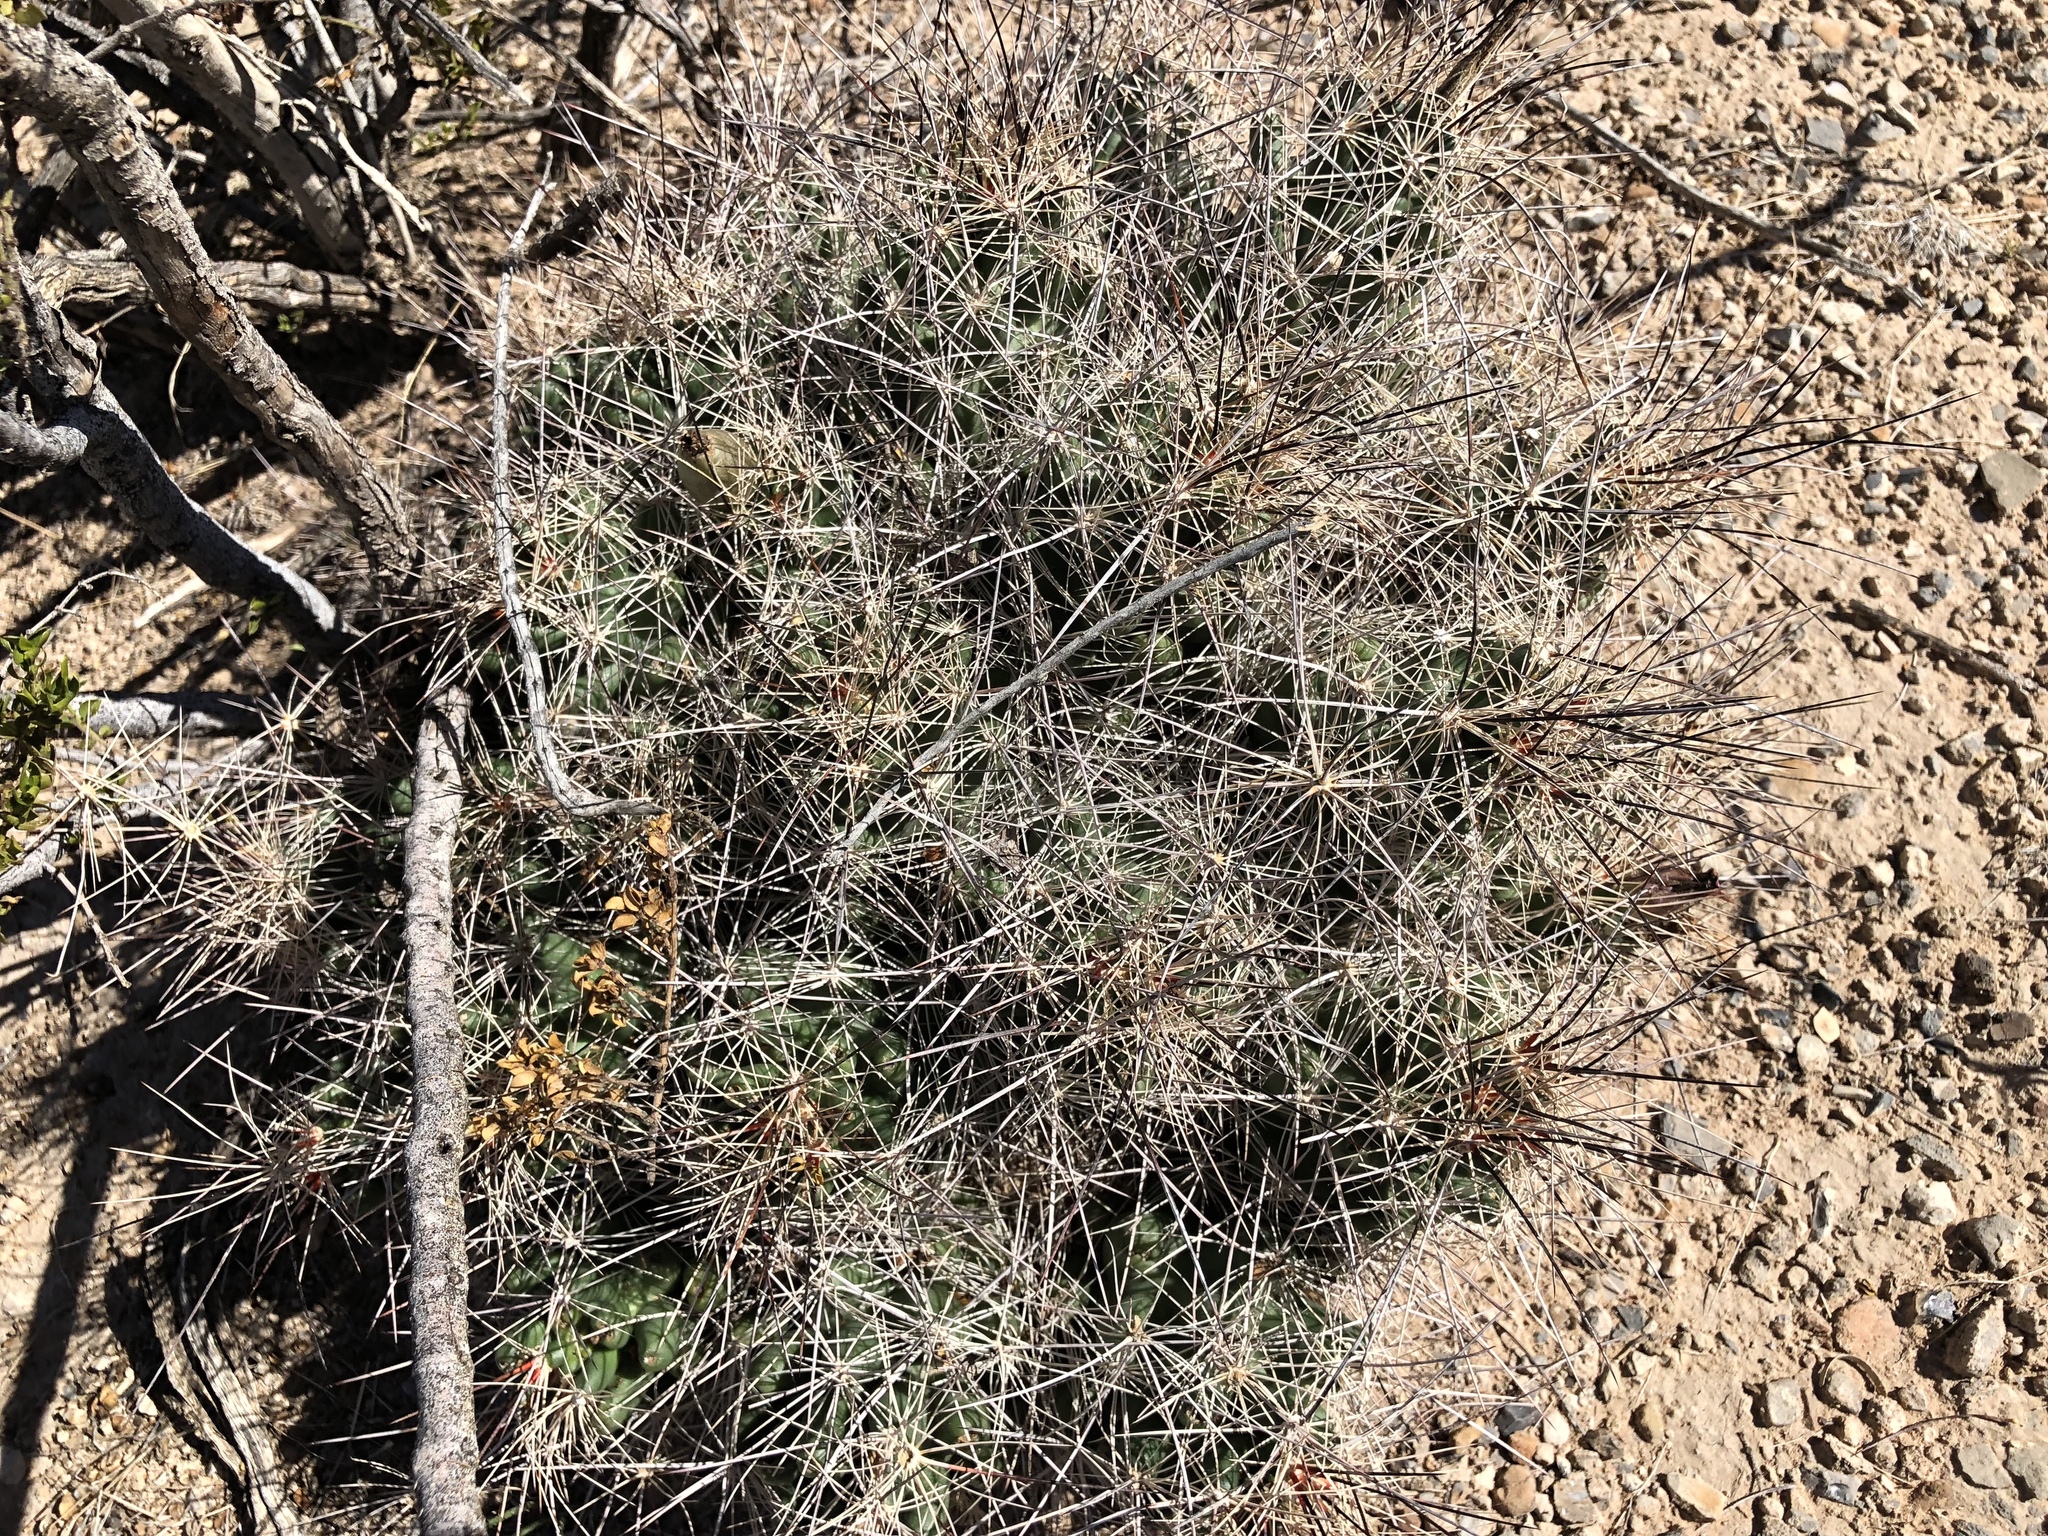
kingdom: Plantae
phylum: Tracheophyta
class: Magnoliopsida
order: Caryophyllales
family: Cactaceae
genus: Coryphantha
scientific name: Coryphantha macromeris
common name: Nipple beehive cactus
